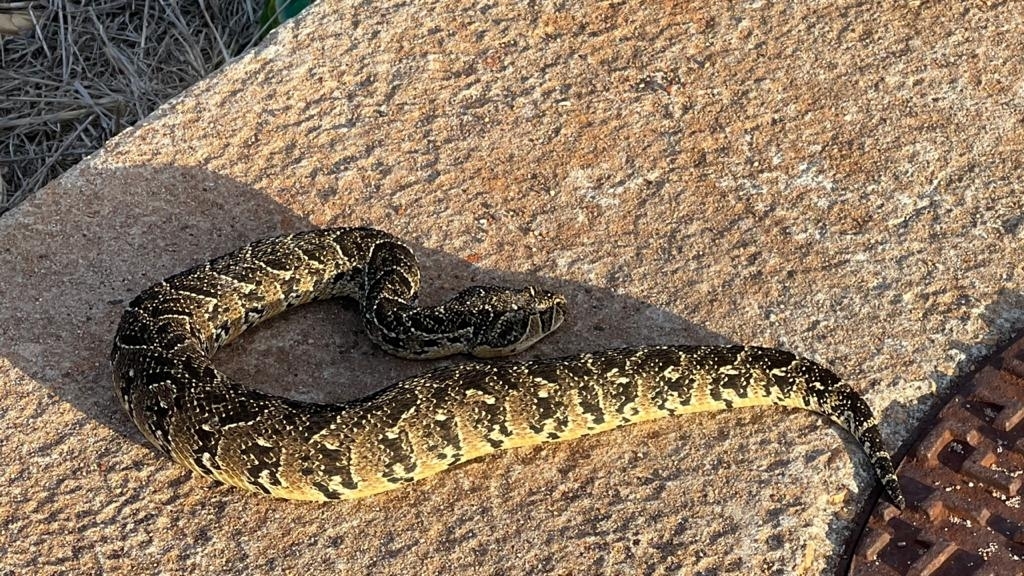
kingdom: Animalia
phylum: Chordata
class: Squamata
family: Viperidae
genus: Bitis
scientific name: Bitis arietans
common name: Puff adder
